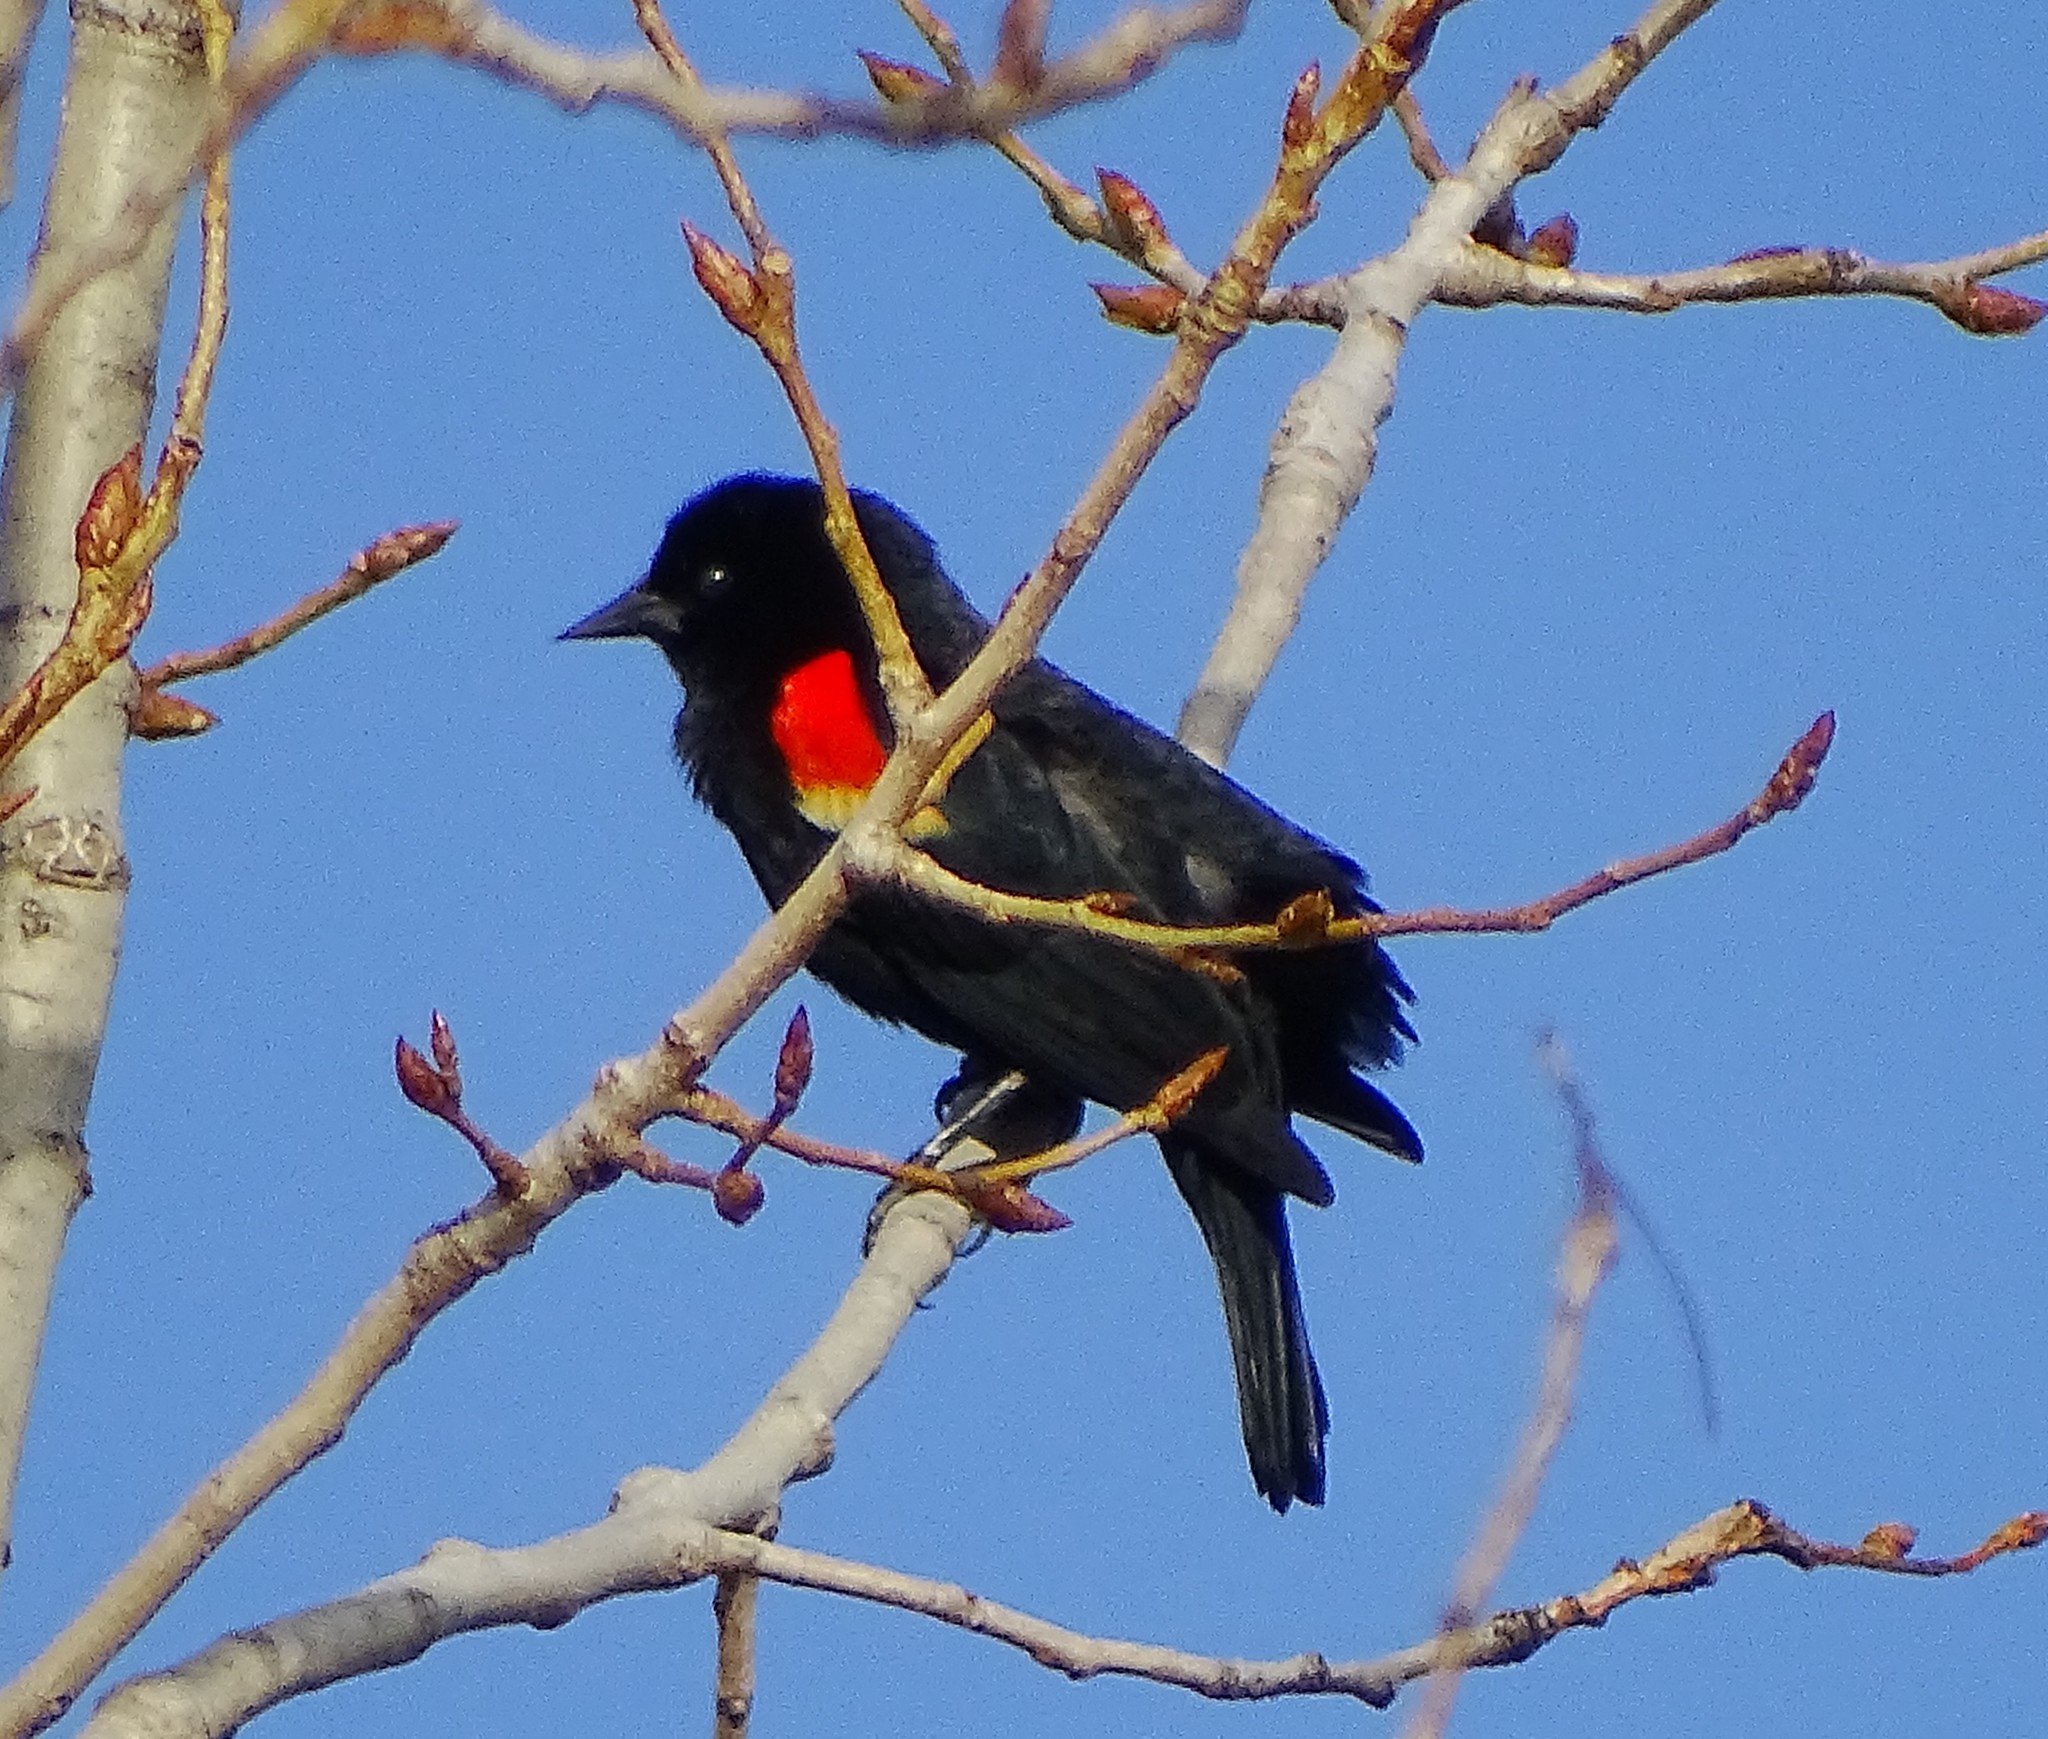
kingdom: Animalia
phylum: Chordata
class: Aves
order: Passeriformes
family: Icteridae
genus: Agelaius
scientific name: Agelaius phoeniceus
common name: Red-winged blackbird
